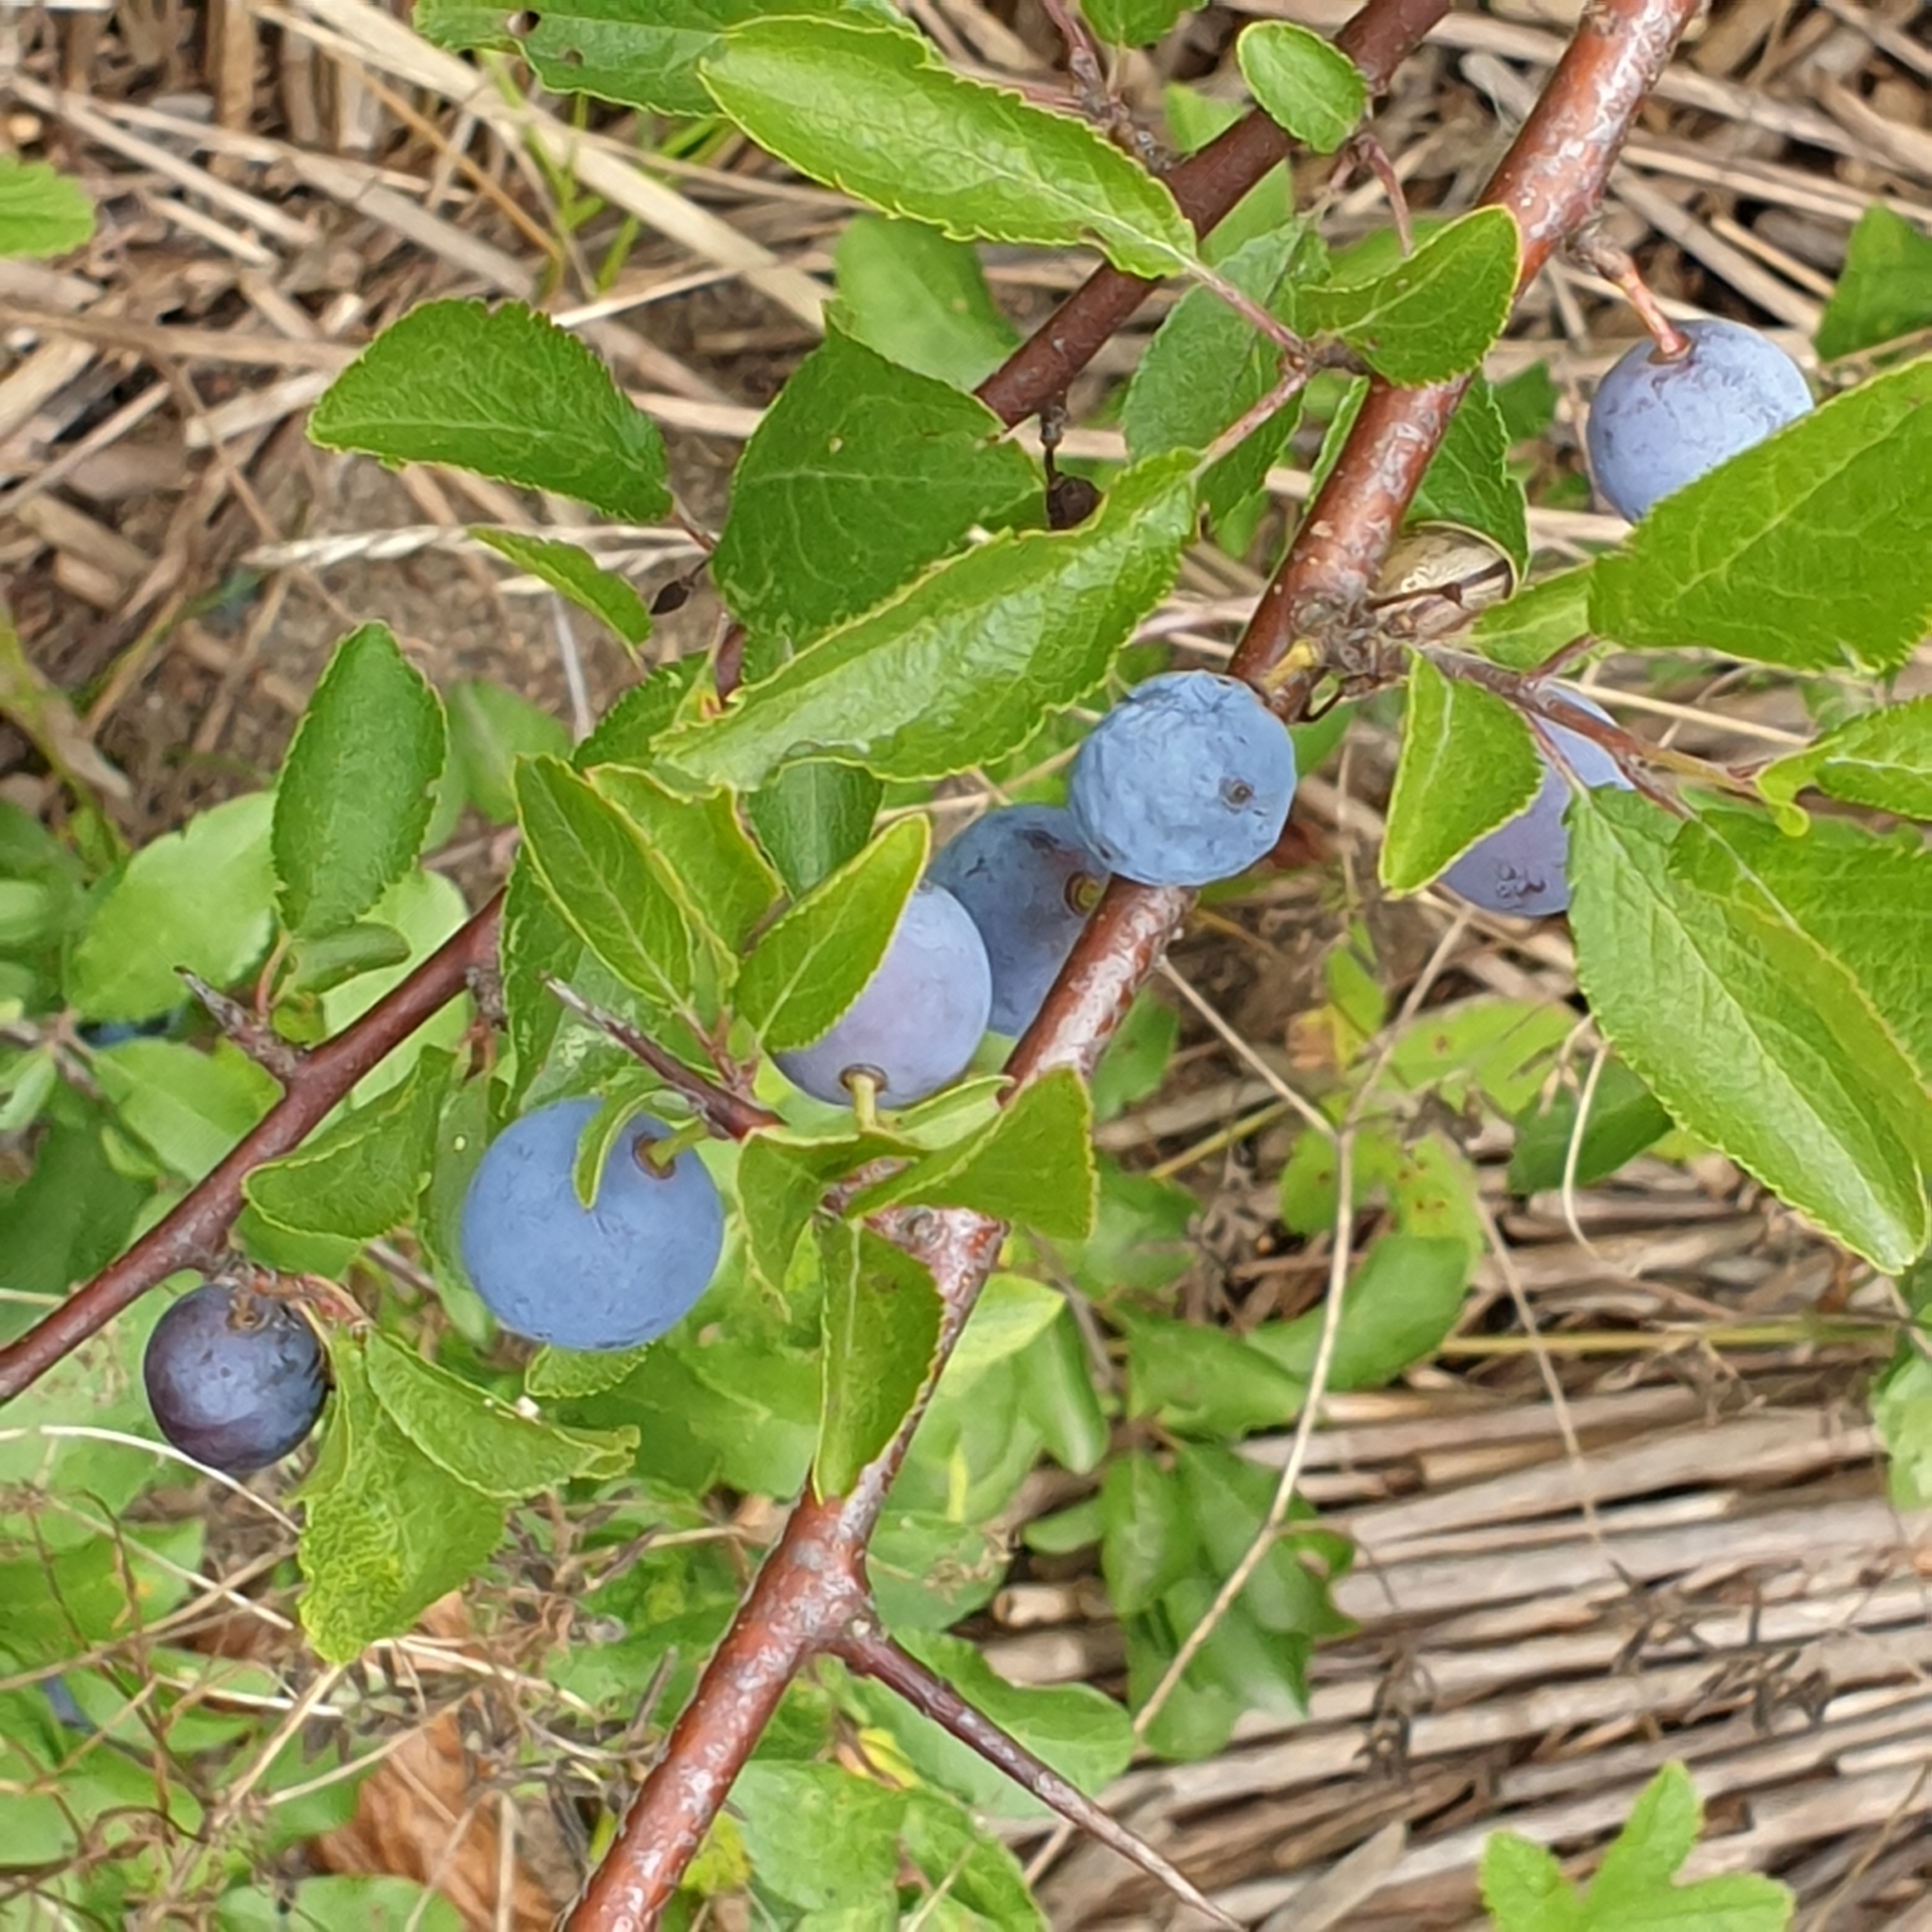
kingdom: Plantae
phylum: Tracheophyta
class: Magnoliopsida
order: Rosales
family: Rosaceae
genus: Prunus
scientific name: Prunus spinosa
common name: Blackthorn
